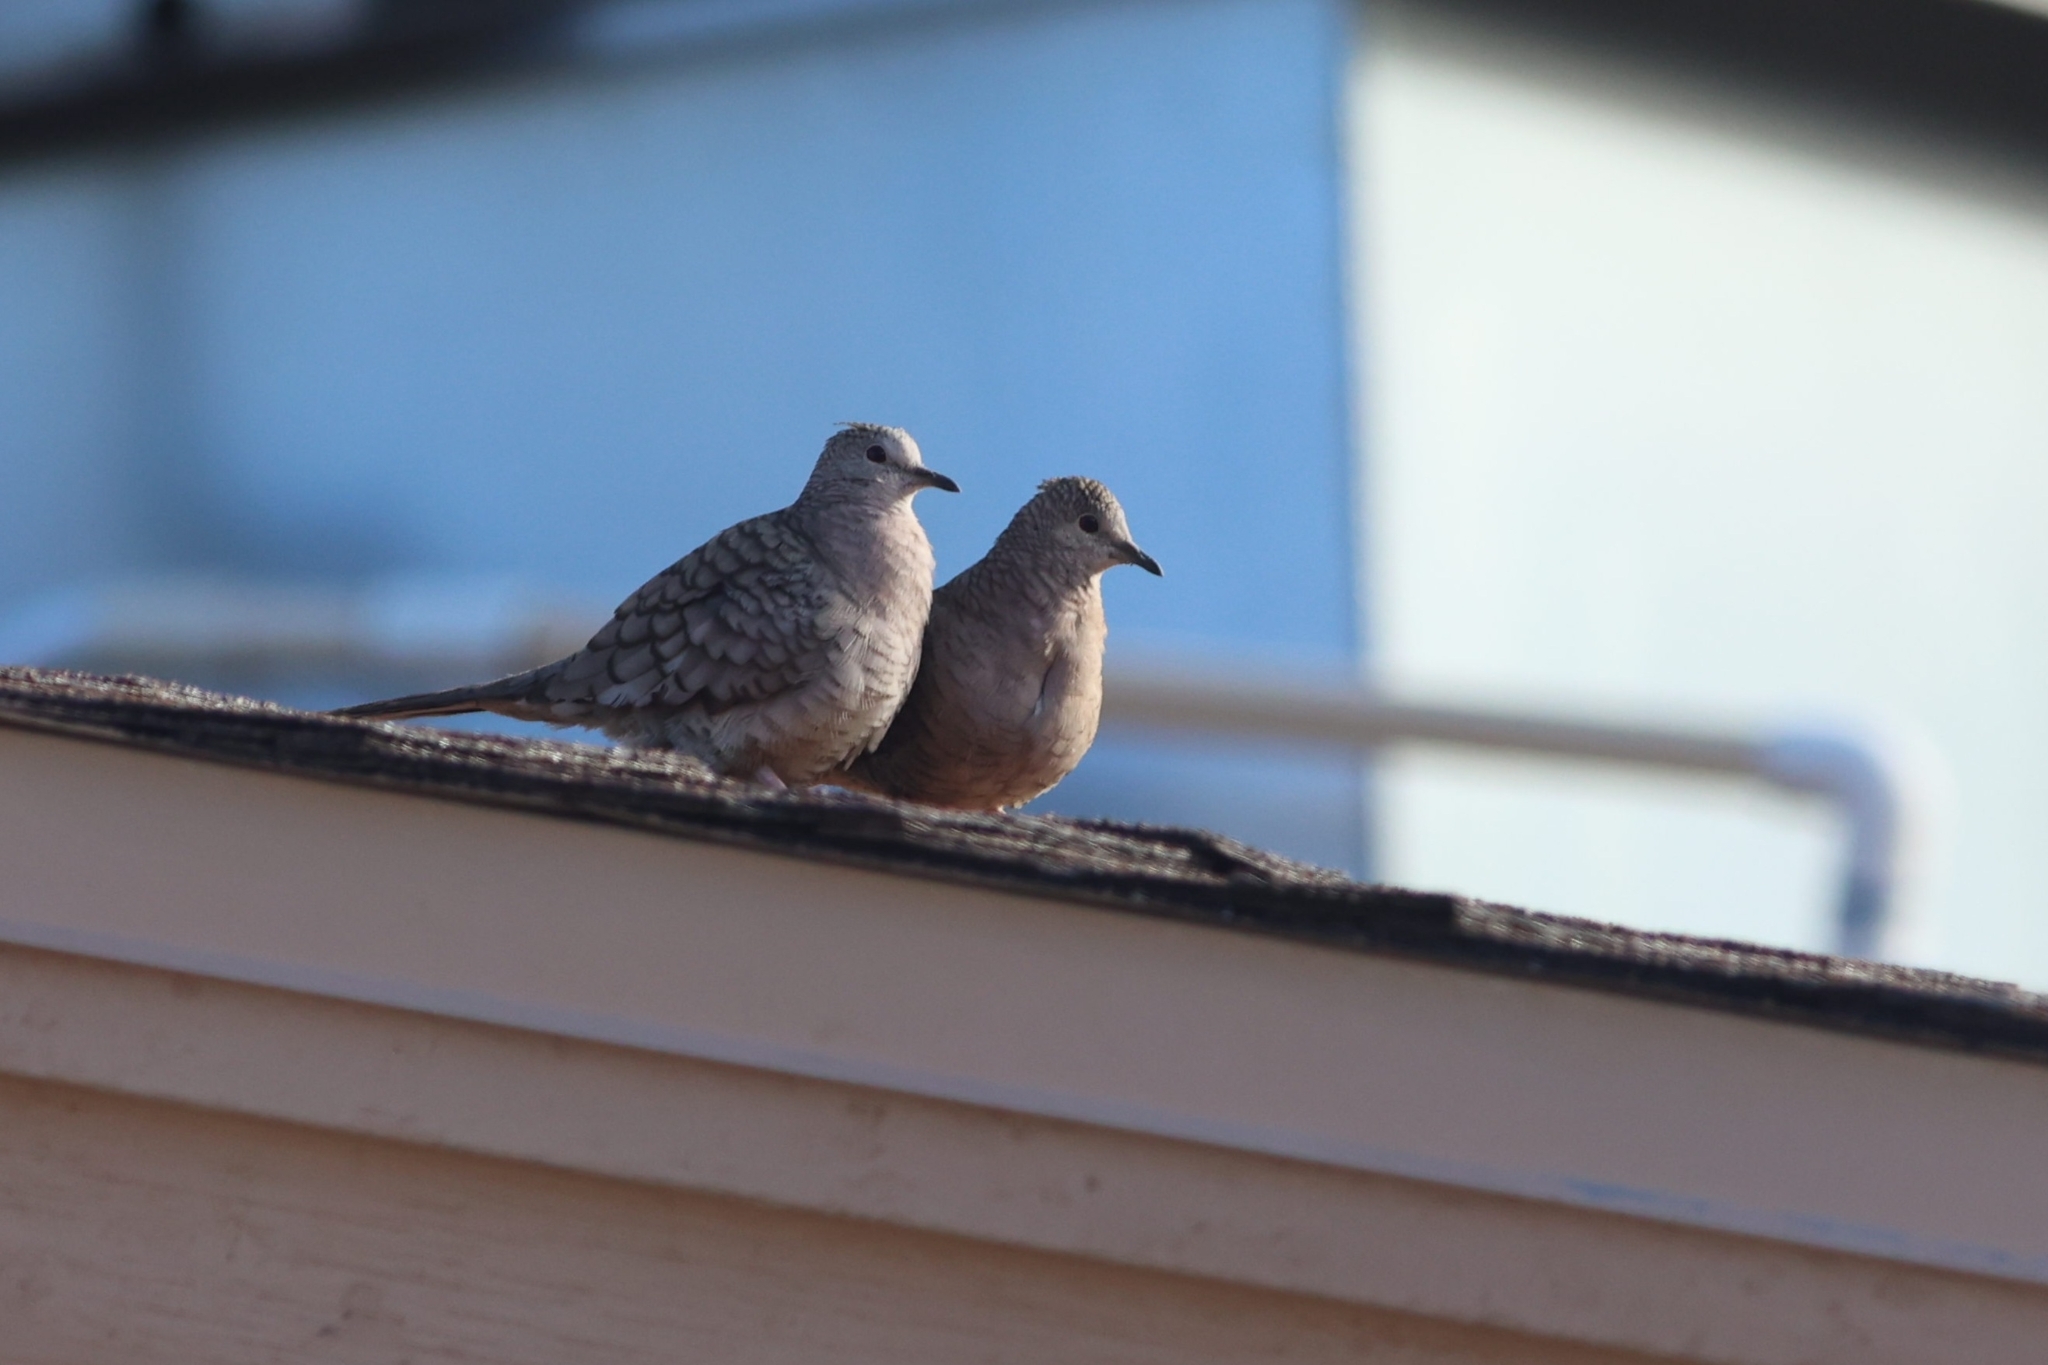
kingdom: Animalia
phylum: Chordata
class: Aves
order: Columbiformes
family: Columbidae
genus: Columbina
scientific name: Columbina inca
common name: Inca dove
